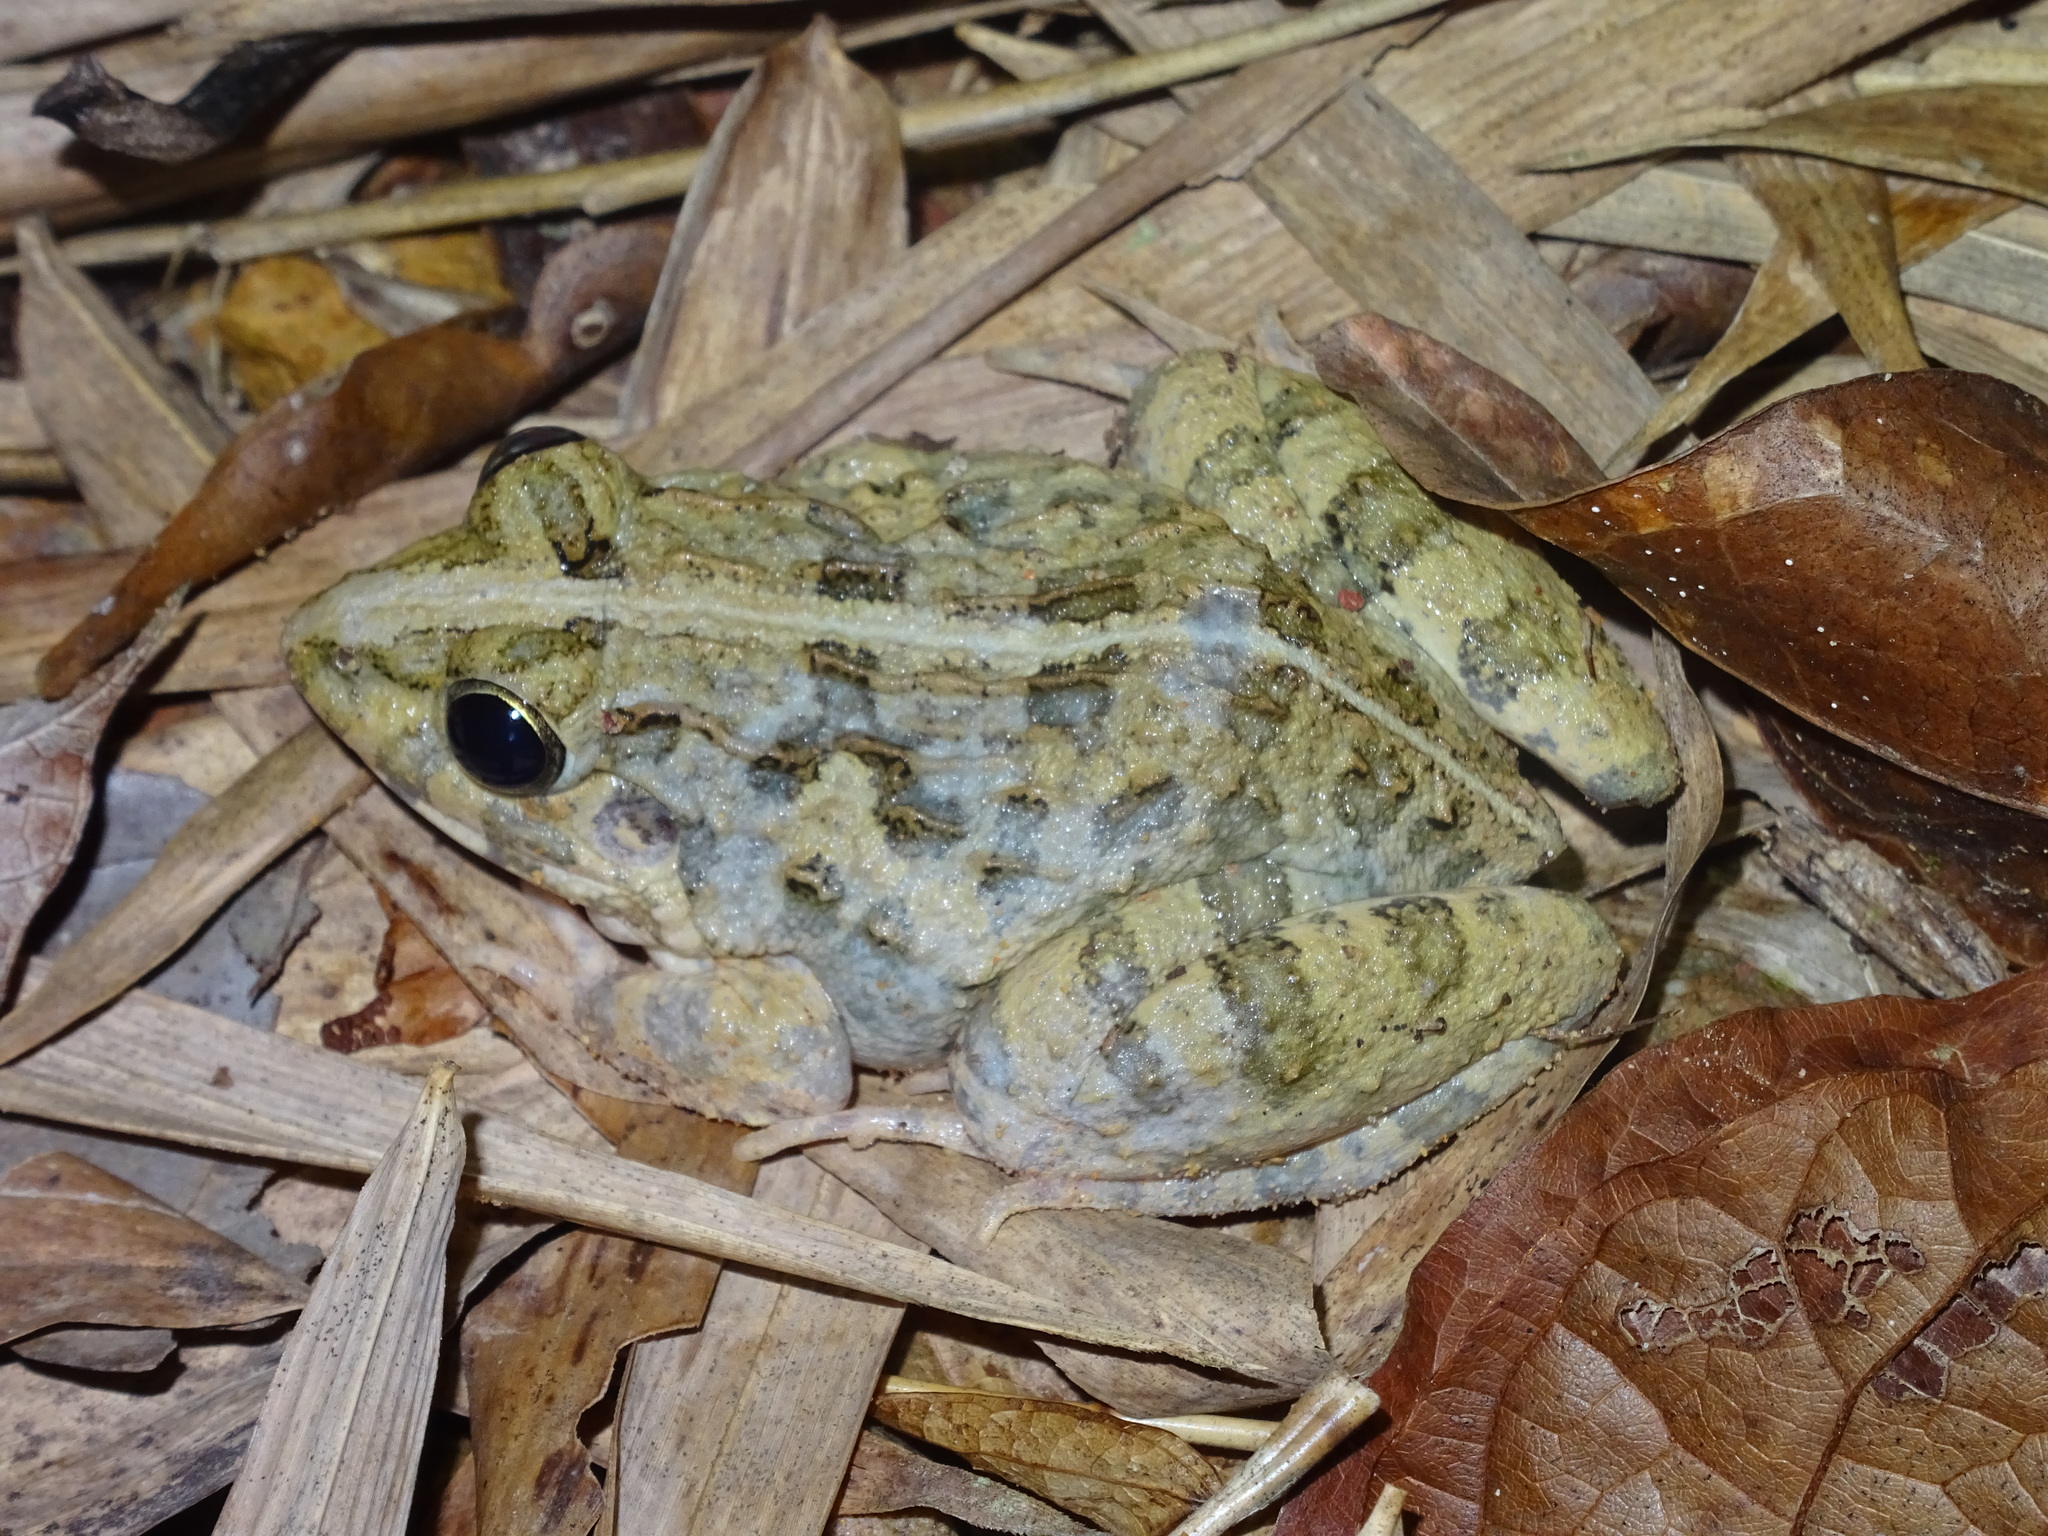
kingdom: Animalia
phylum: Chordata
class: Amphibia
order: Anura
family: Dicroglossidae
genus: Fejervarya
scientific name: Fejervarya limnocharis
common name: Asian grass frog/common pond frog/field frog/grass frog/indian rice frog
